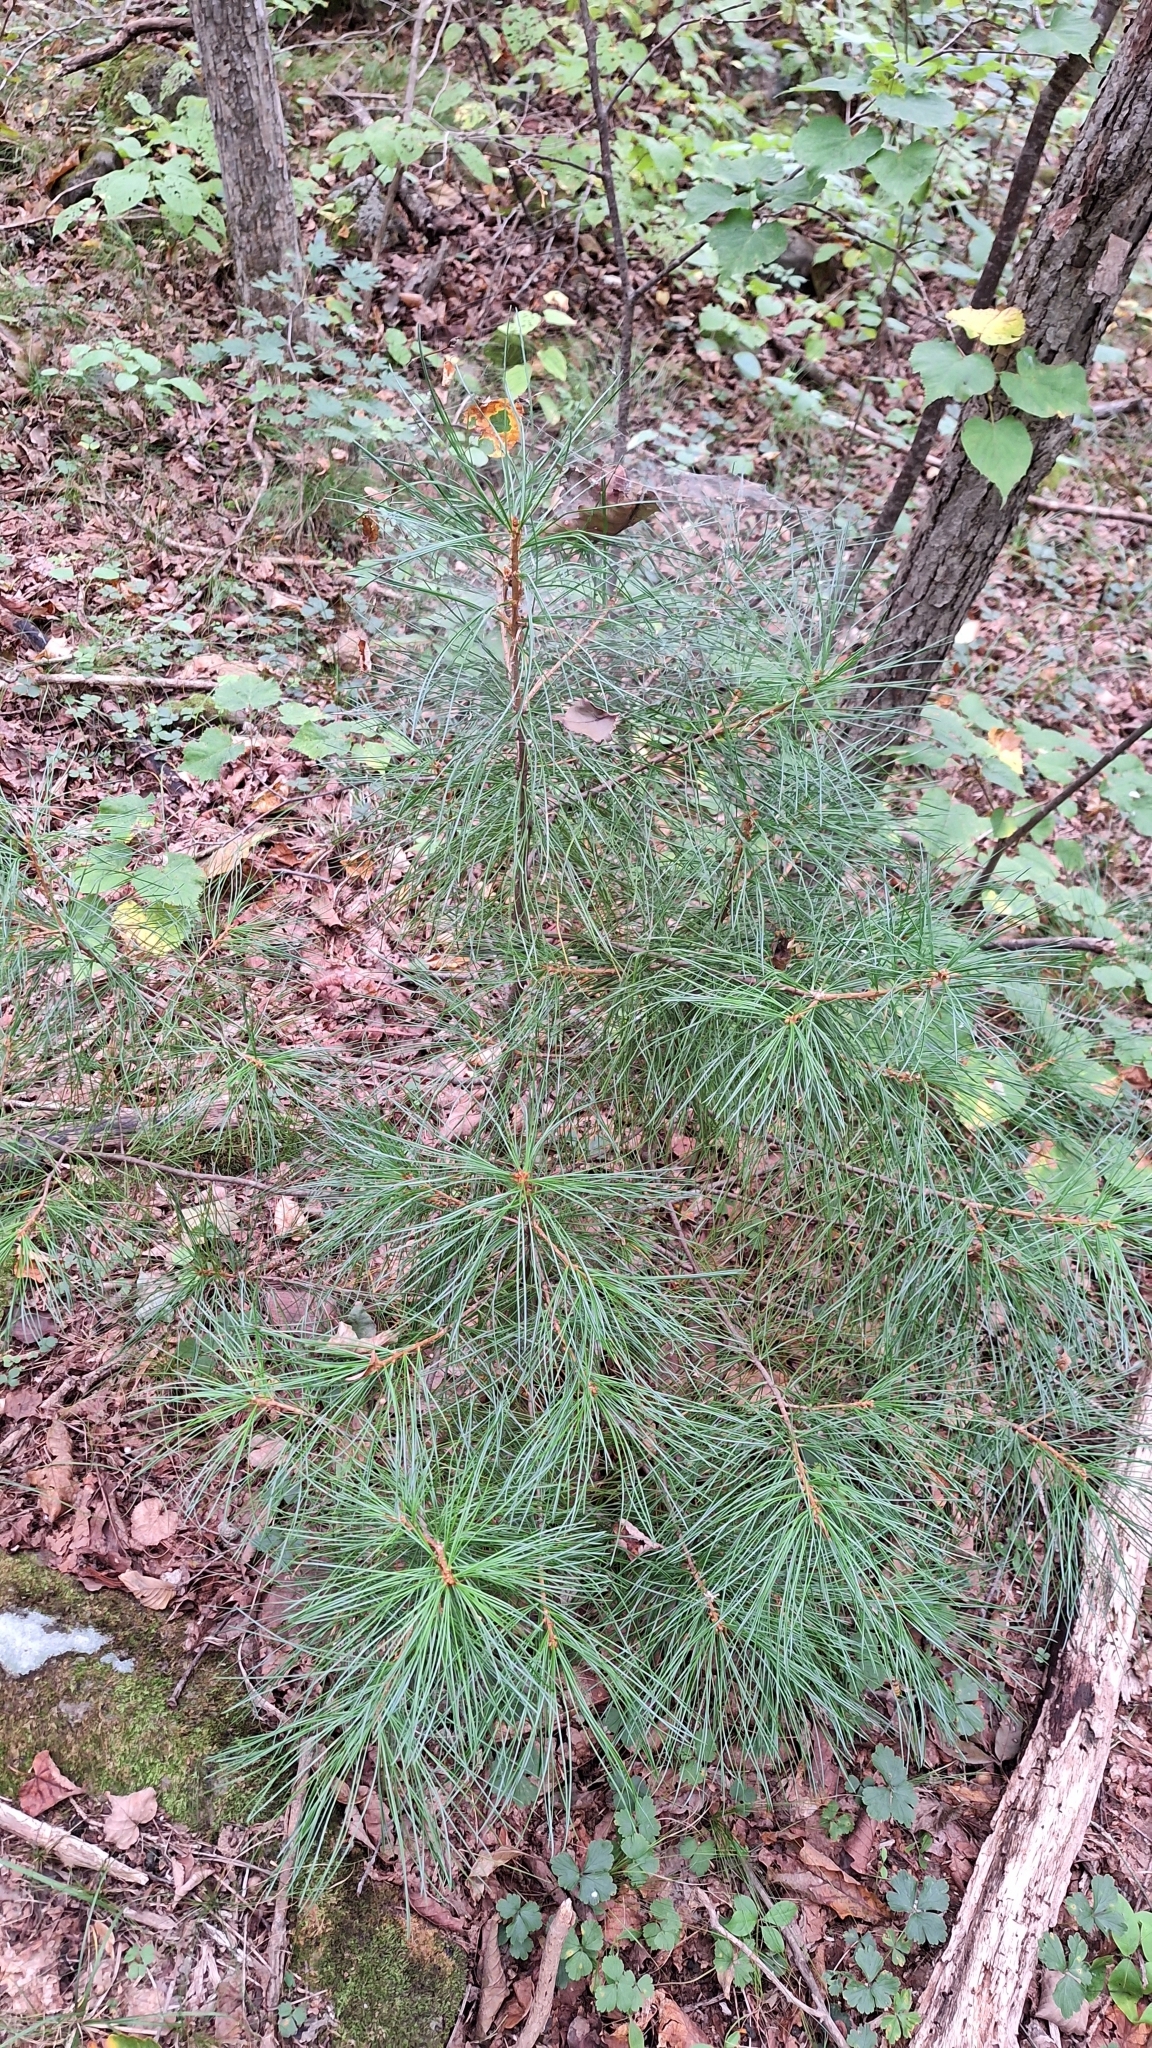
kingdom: Plantae
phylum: Tracheophyta
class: Pinopsida
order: Pinales
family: Pinaceae
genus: Pinus
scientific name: Pinus koraiensis
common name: Korean pine
